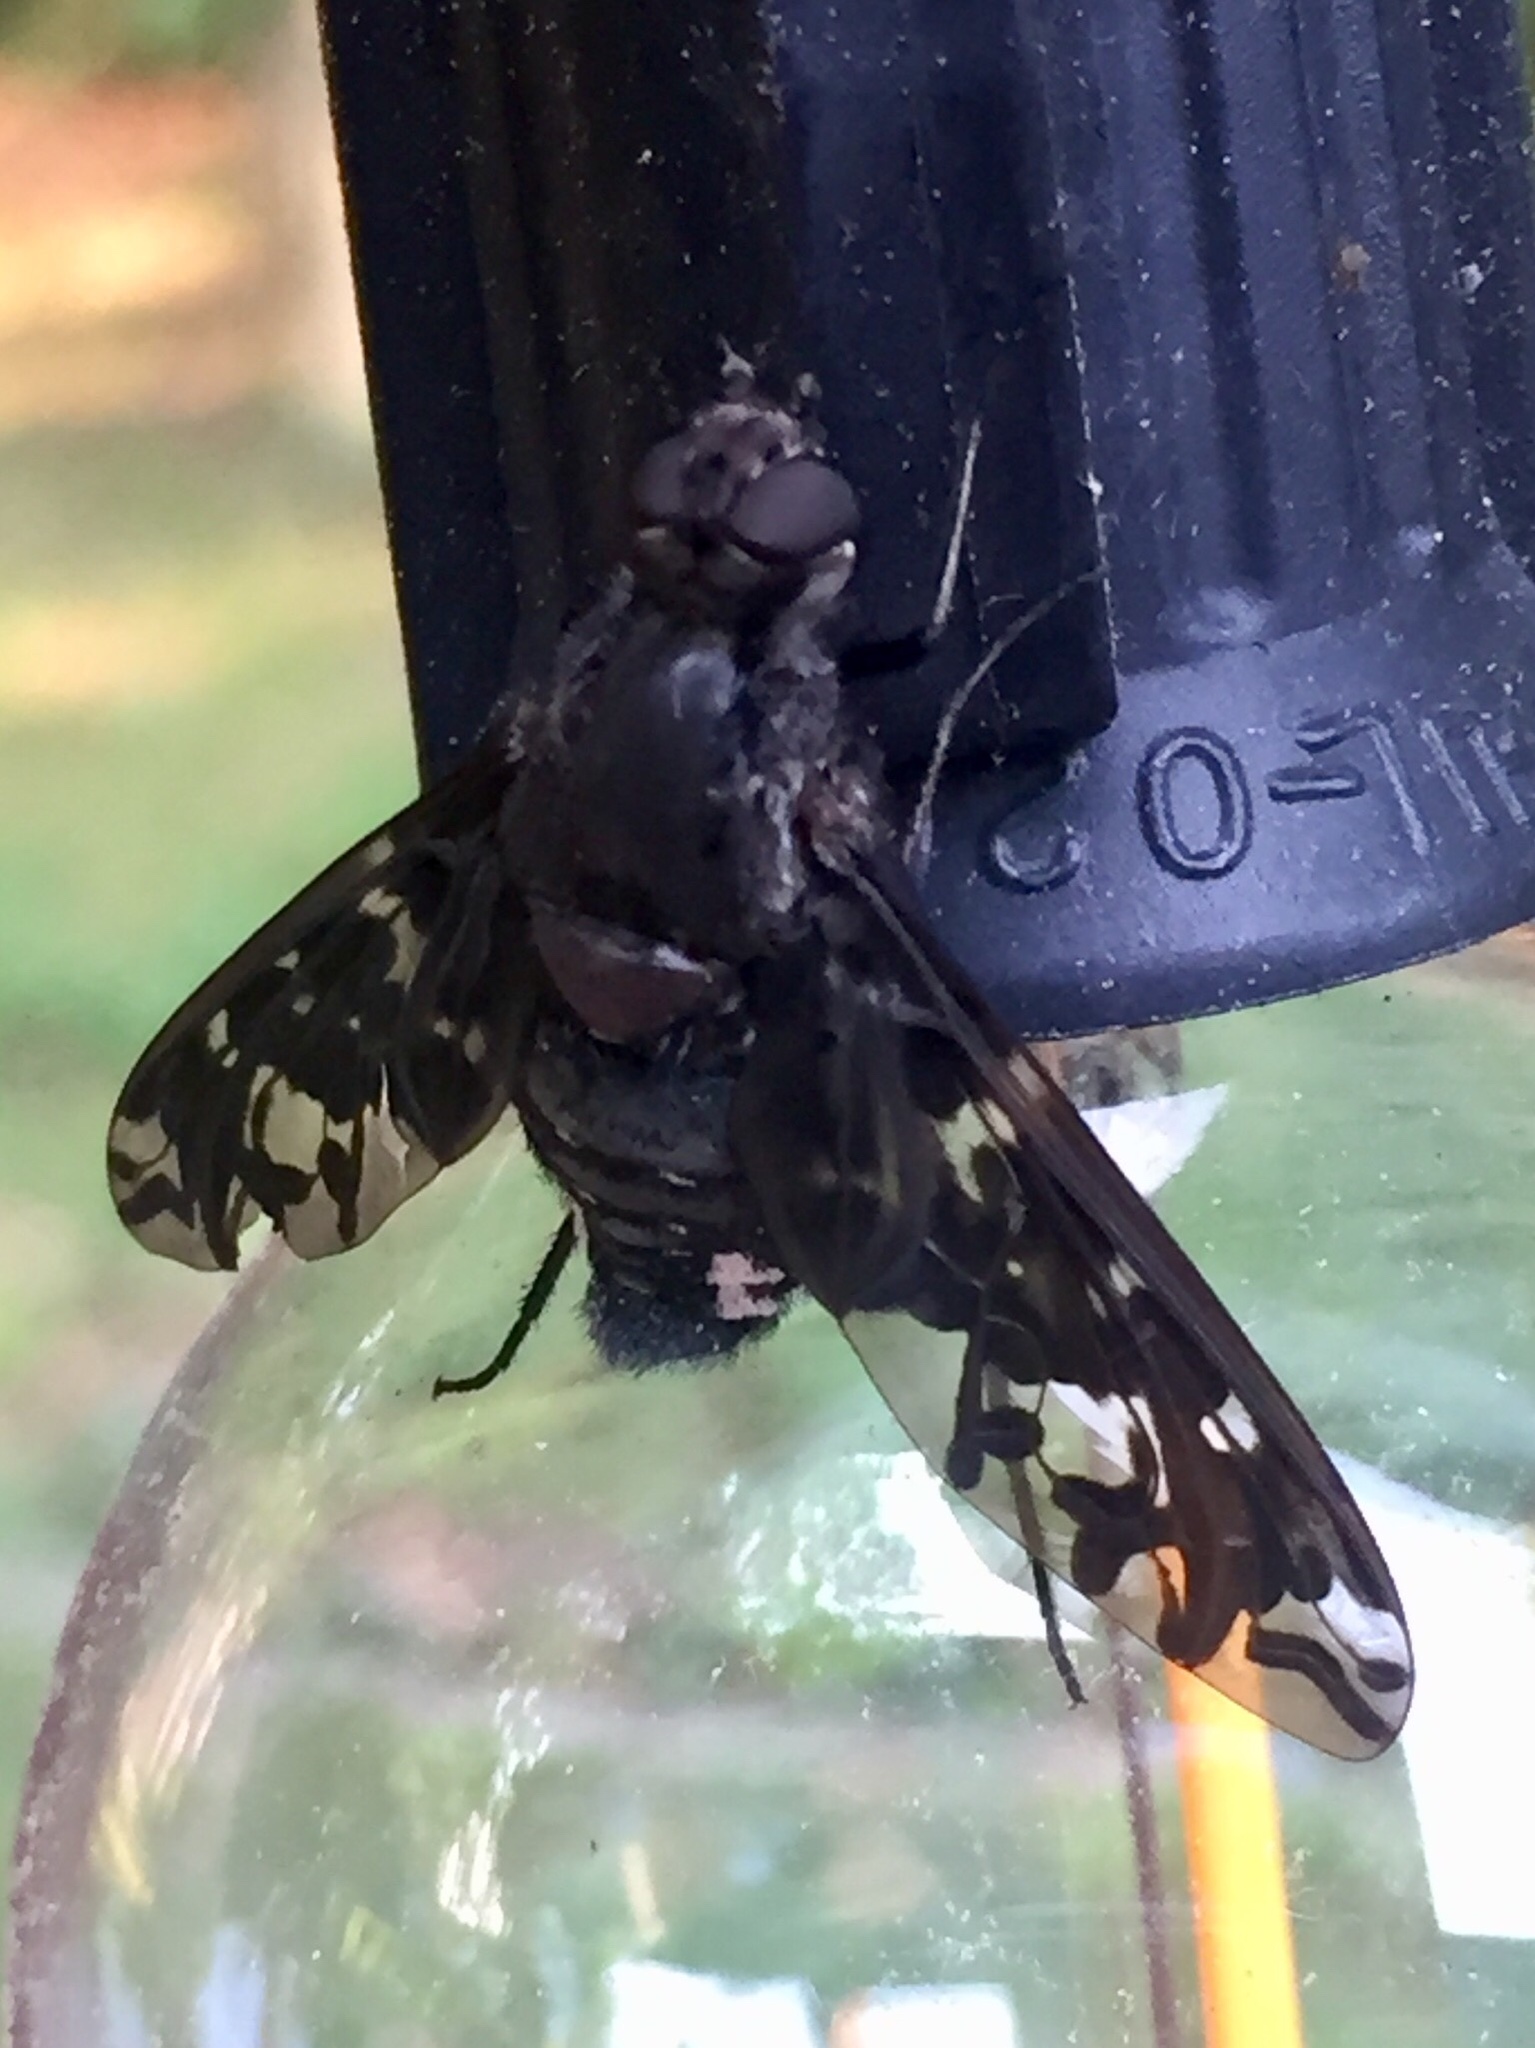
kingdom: Animalia
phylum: Arthropoda
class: Insecta
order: Diptera
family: Bombyliidae
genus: Xenox
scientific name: Xenox tigrinus
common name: Tiger bee fly
